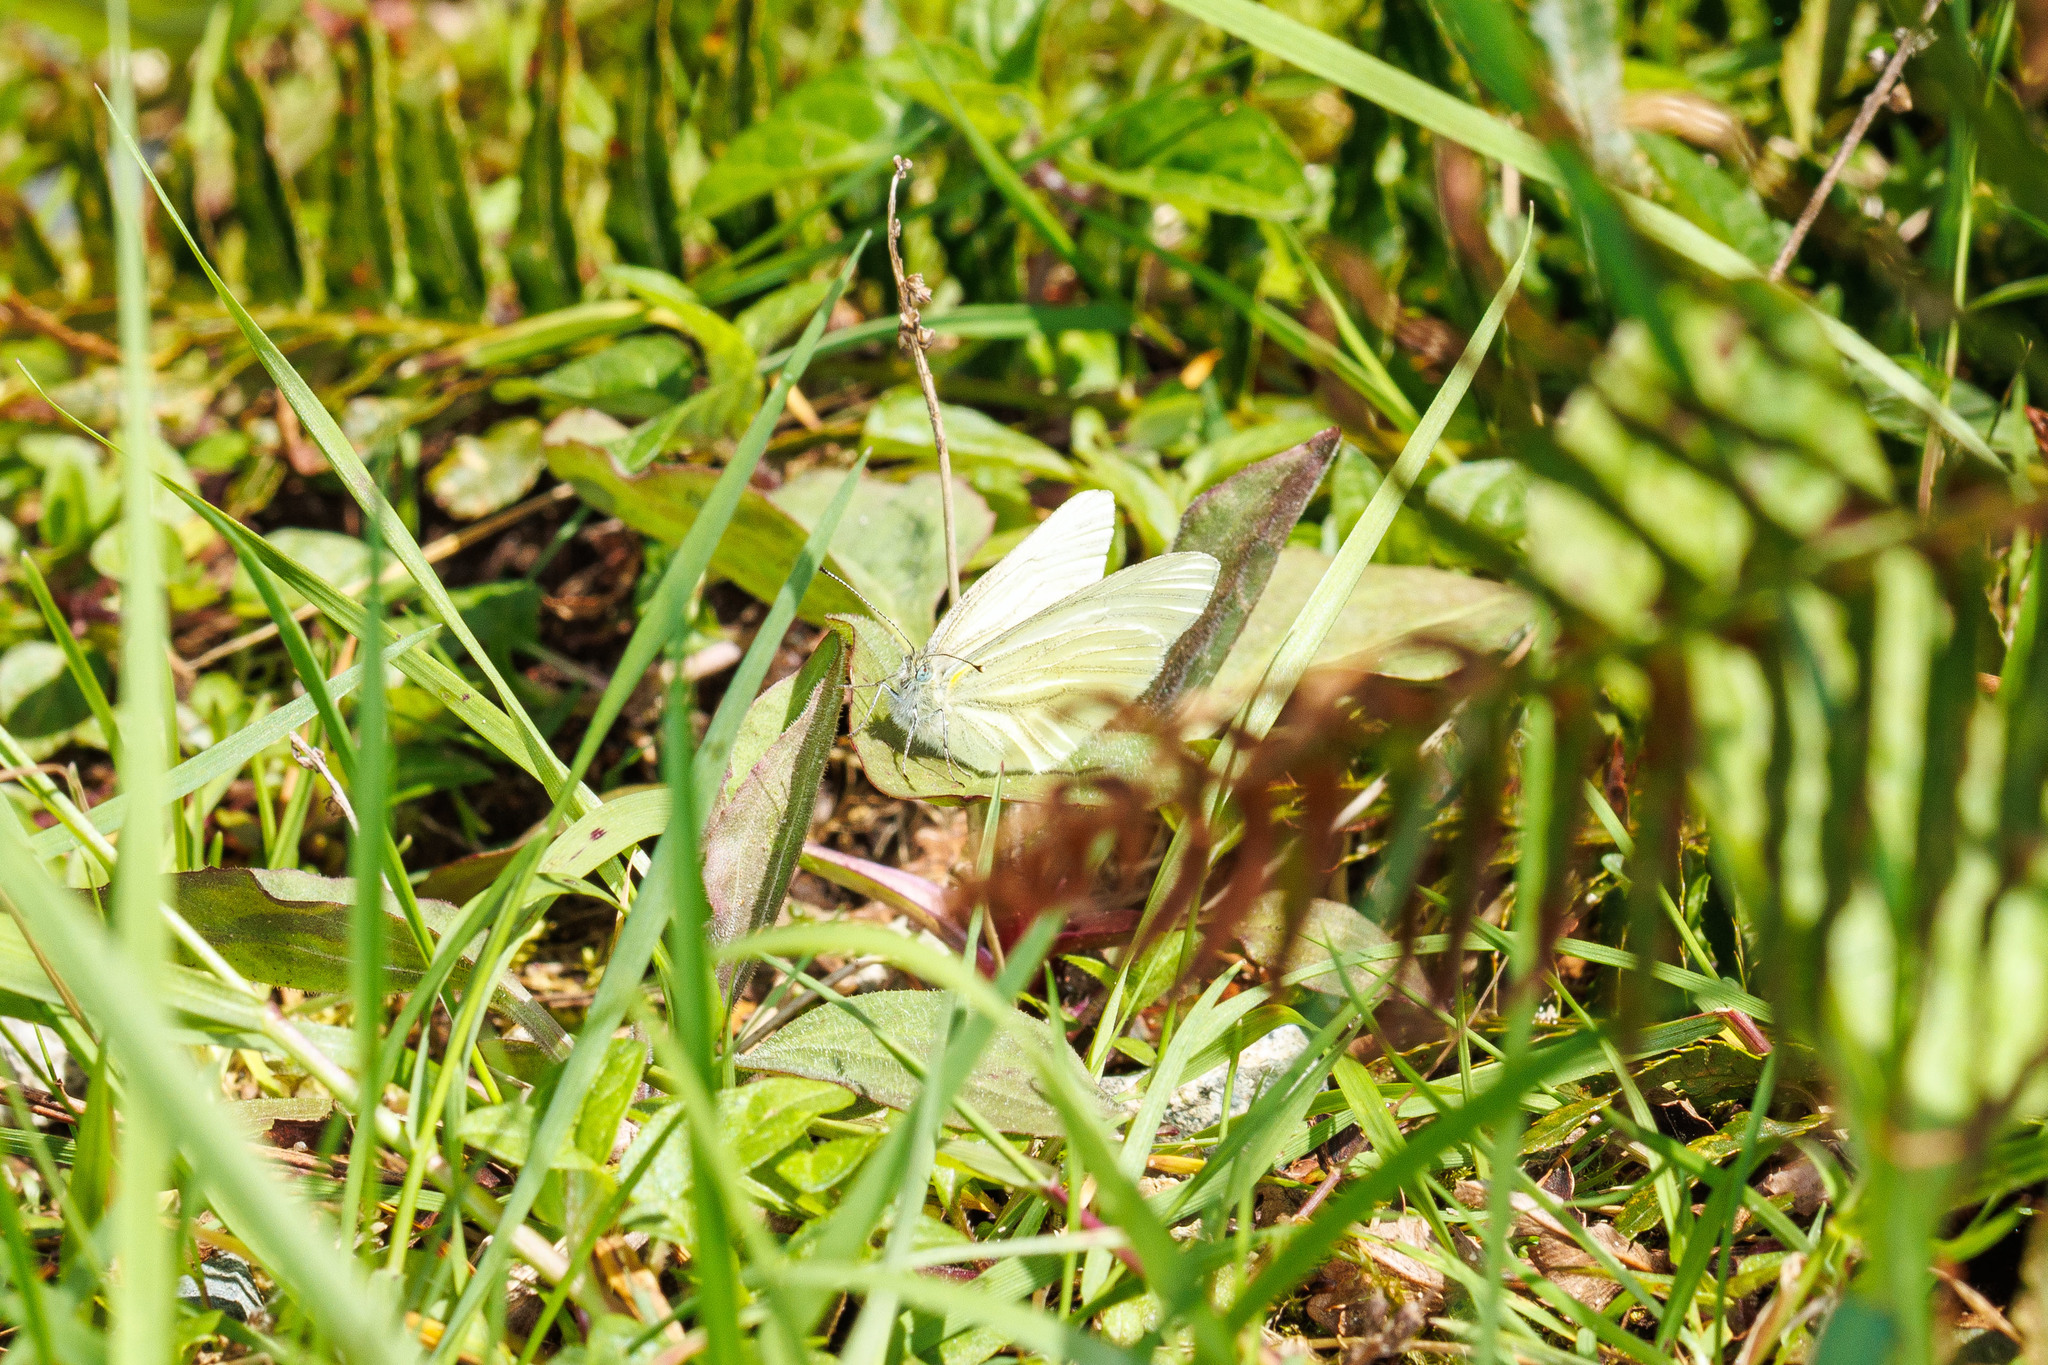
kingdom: Animalia
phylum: Arthropoda
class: Insecta
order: Lepidoptera
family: Pieridae
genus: Pieris
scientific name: Pieris marginalis
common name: Margined white
